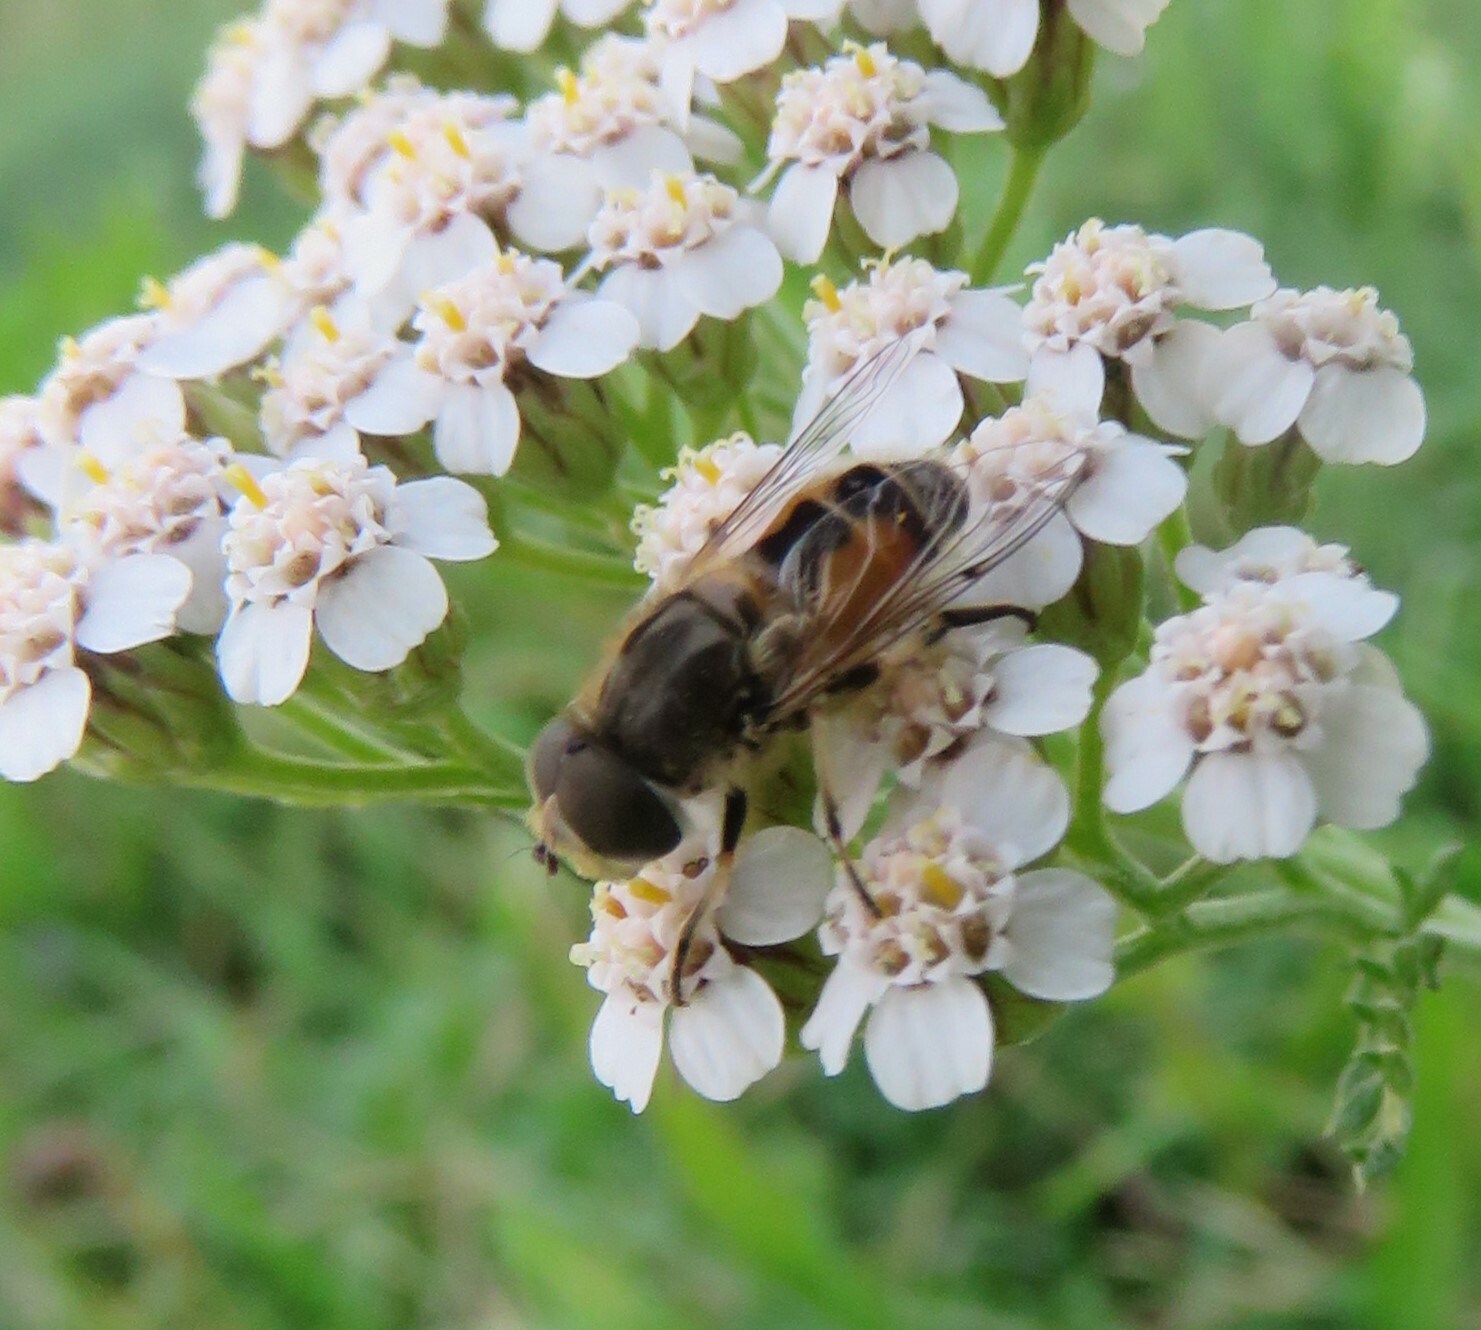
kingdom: Animalia
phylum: Arthropoda
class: Insecta
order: Diptera
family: Syrphidae
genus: Eristalis
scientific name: Eristalis arbustorum
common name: Hover fly
